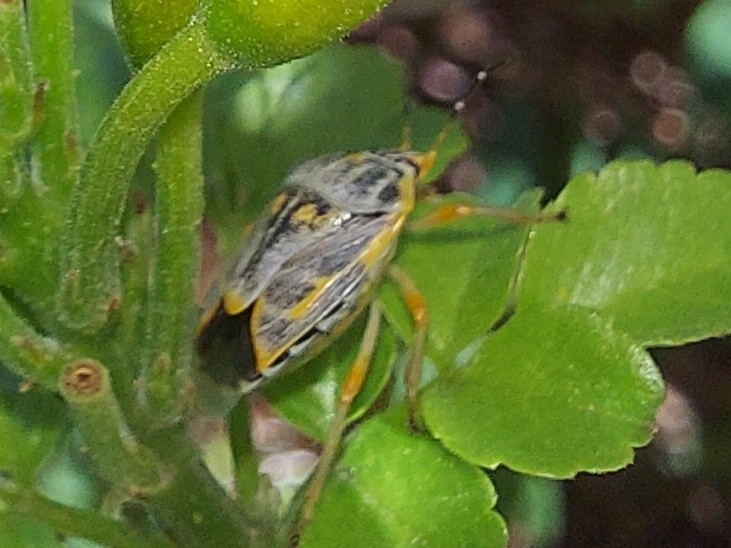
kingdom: Animalia
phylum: Arthropoda
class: Insecta
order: Hemiptera
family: Pentatomidae
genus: Antestiopsis
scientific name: Antestiopsis thunbergii
